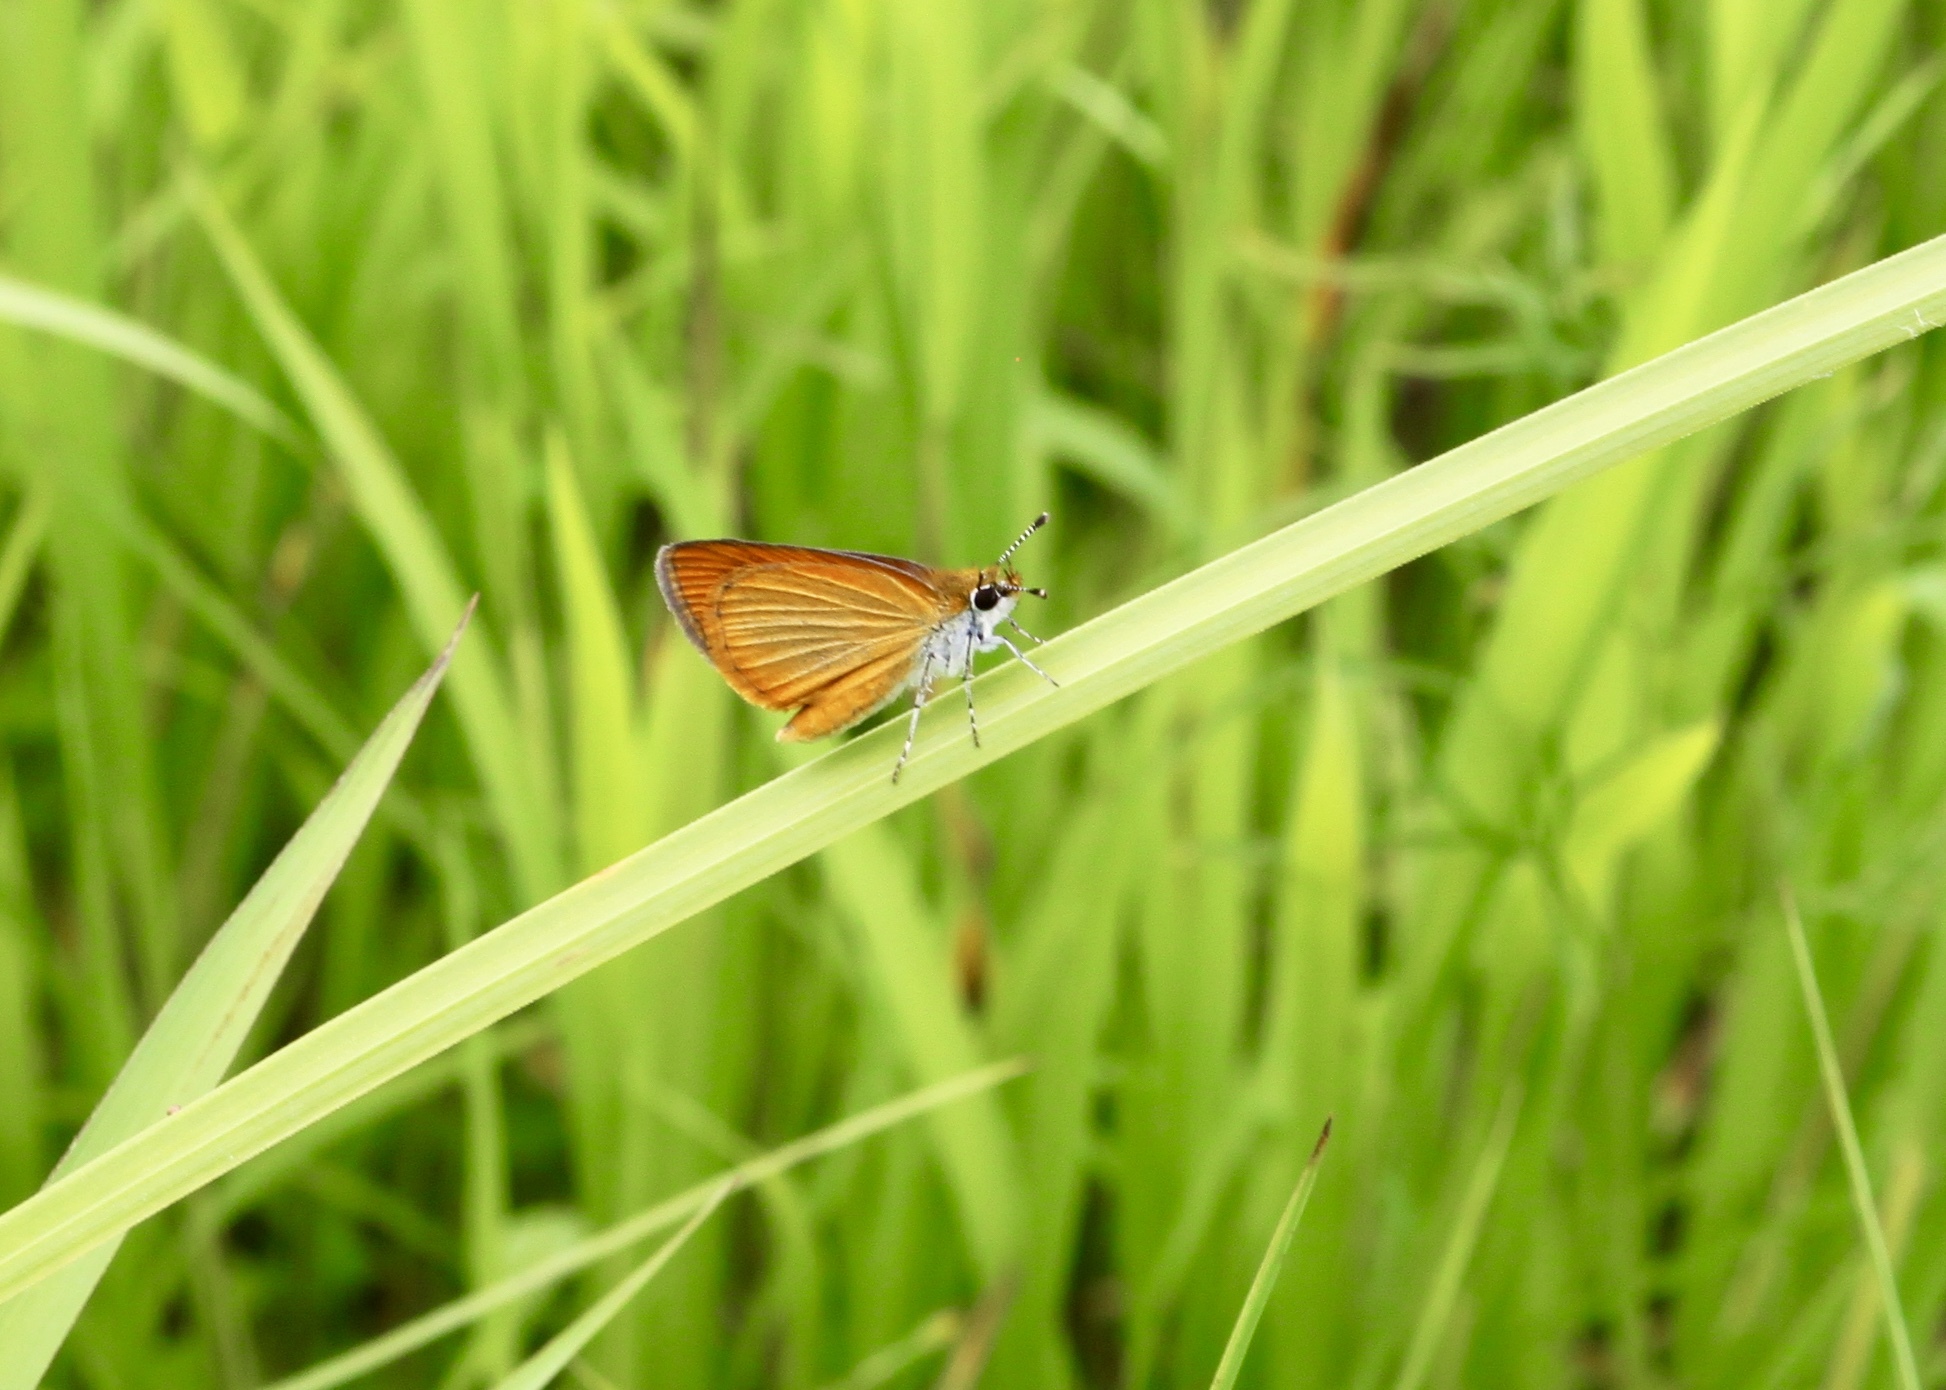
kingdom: Animalia
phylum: Arthropoda
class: Insecta
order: Lepidoptera
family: Hesperiidae
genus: Ancyloxypha
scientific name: Ancyloxypha numitor
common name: Least skipper
